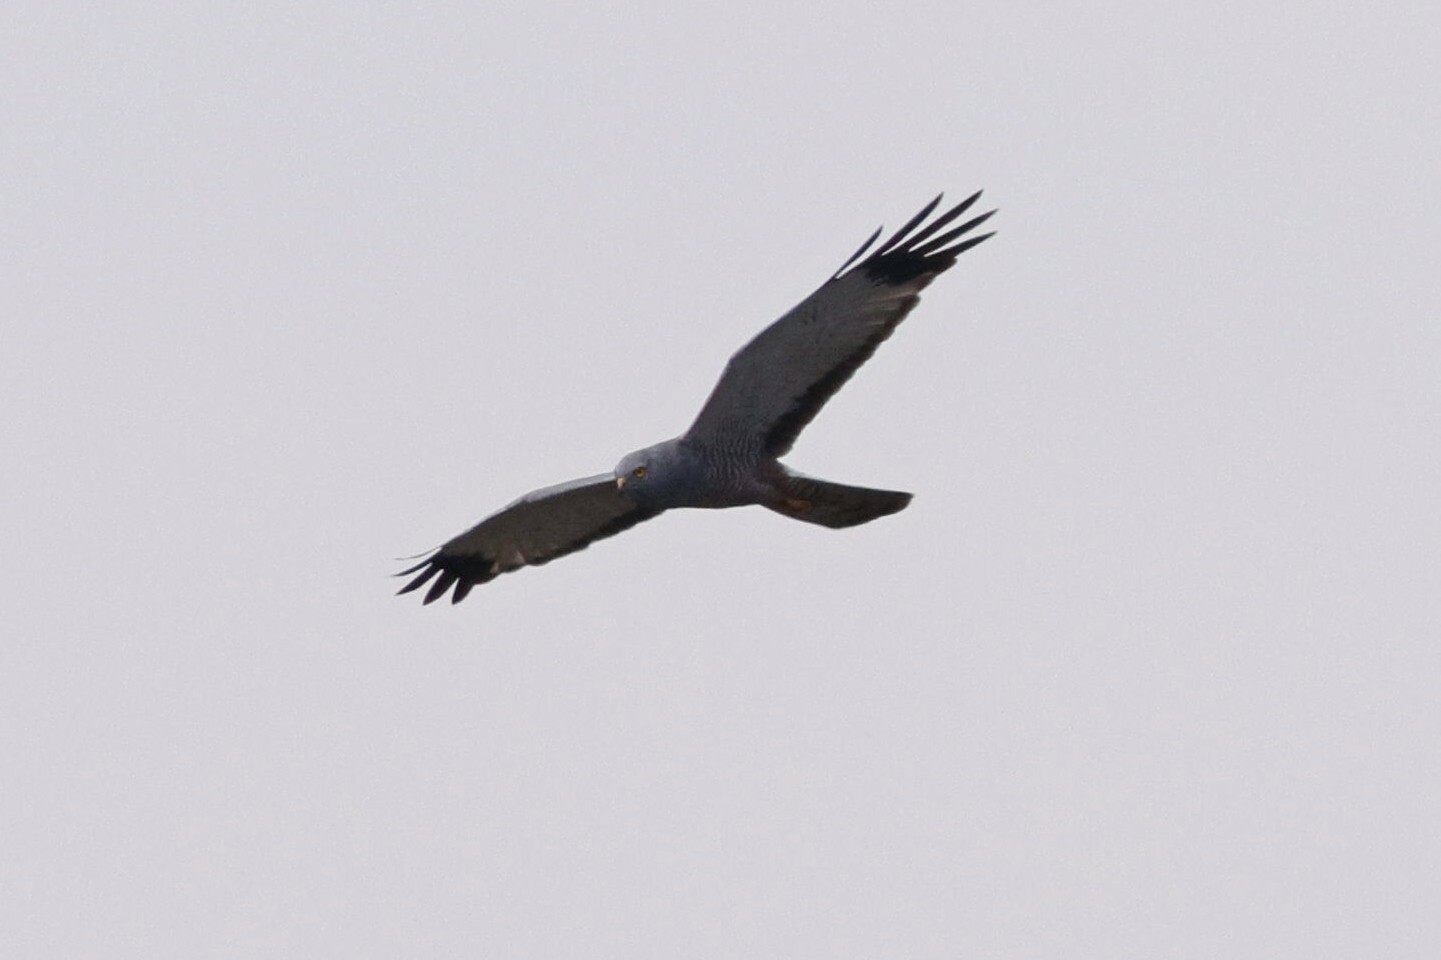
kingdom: Animalia
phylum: Chordata
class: Aves
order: Accipitriformes
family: Accipitridae
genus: Circus
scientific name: Circus cinereus
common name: Cinereous harrier
